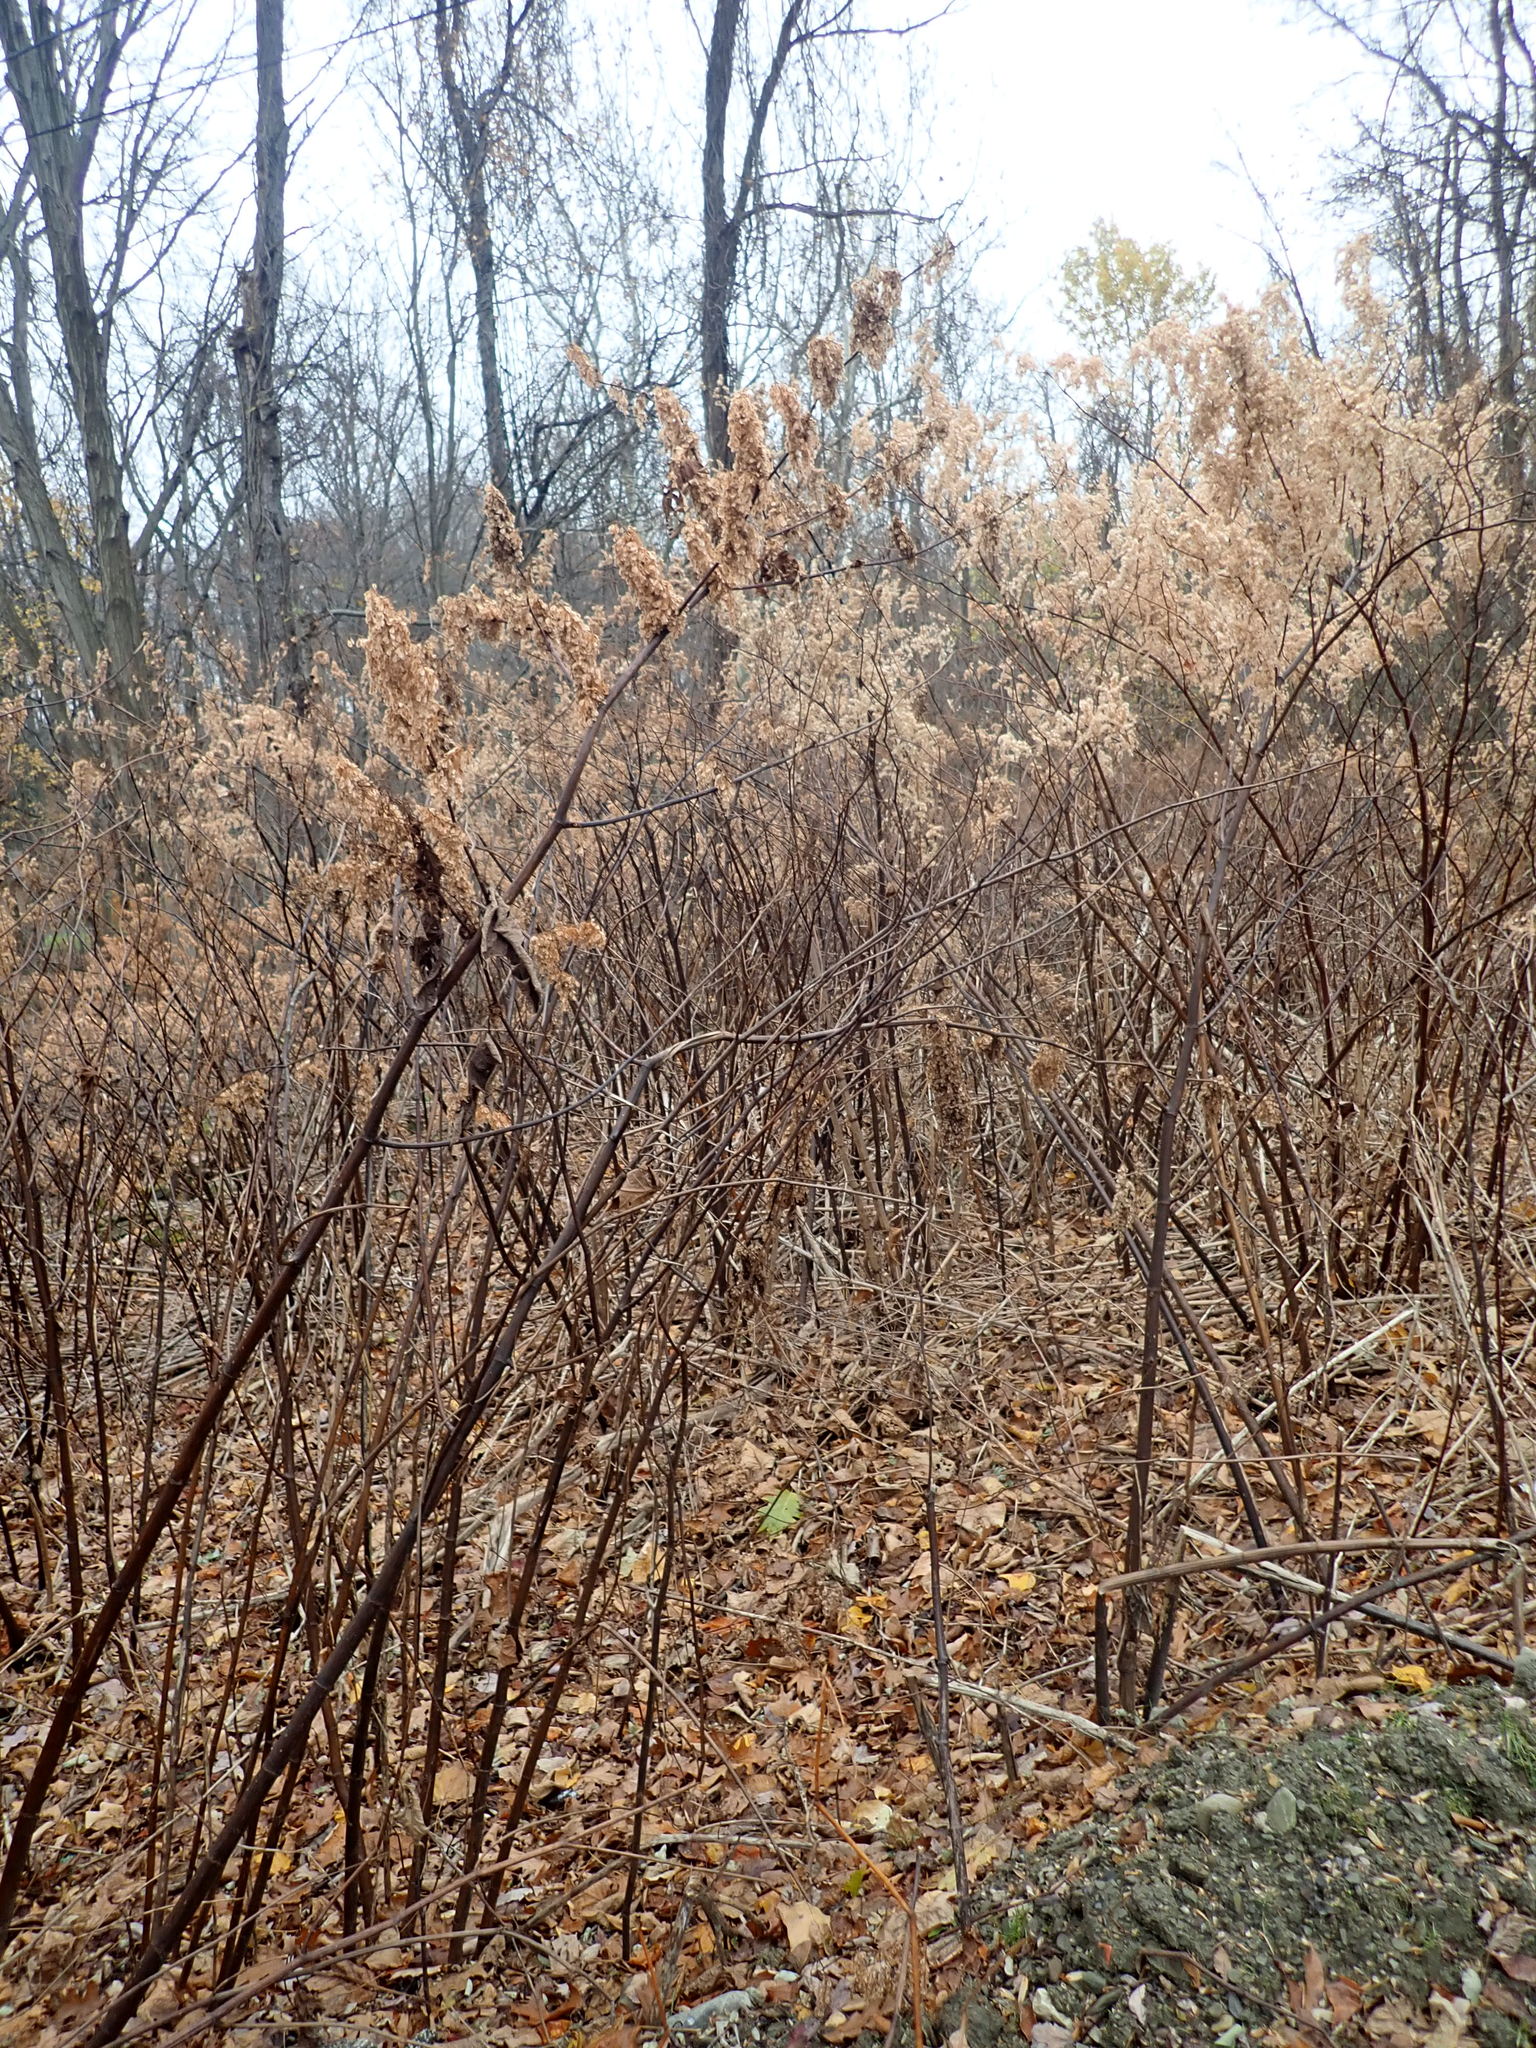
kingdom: Plantae
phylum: Tracheophyta
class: Magnoliopsida
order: Caryophyllales
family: Polygonaceae
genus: Reynoutria
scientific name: Reynoutria japonica
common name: Japanese knotweed
